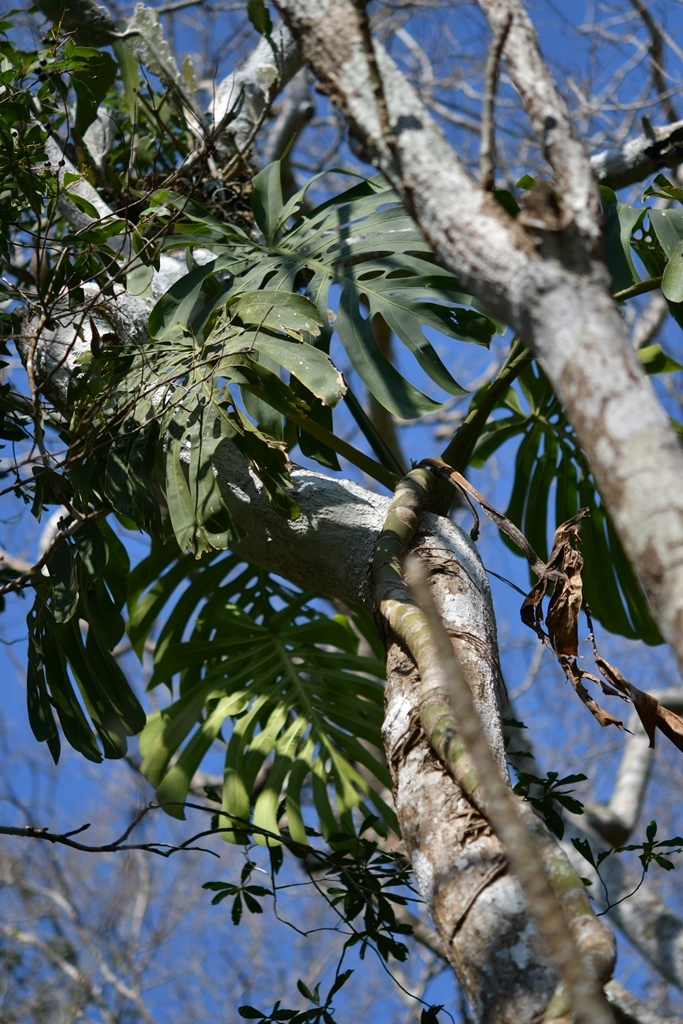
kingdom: Plantae
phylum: Tracheophyta
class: Liliopsida
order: Alismatales
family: Araceae
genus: Monstera
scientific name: Monstera deliciosa
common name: Cut-leaf-philodendron
